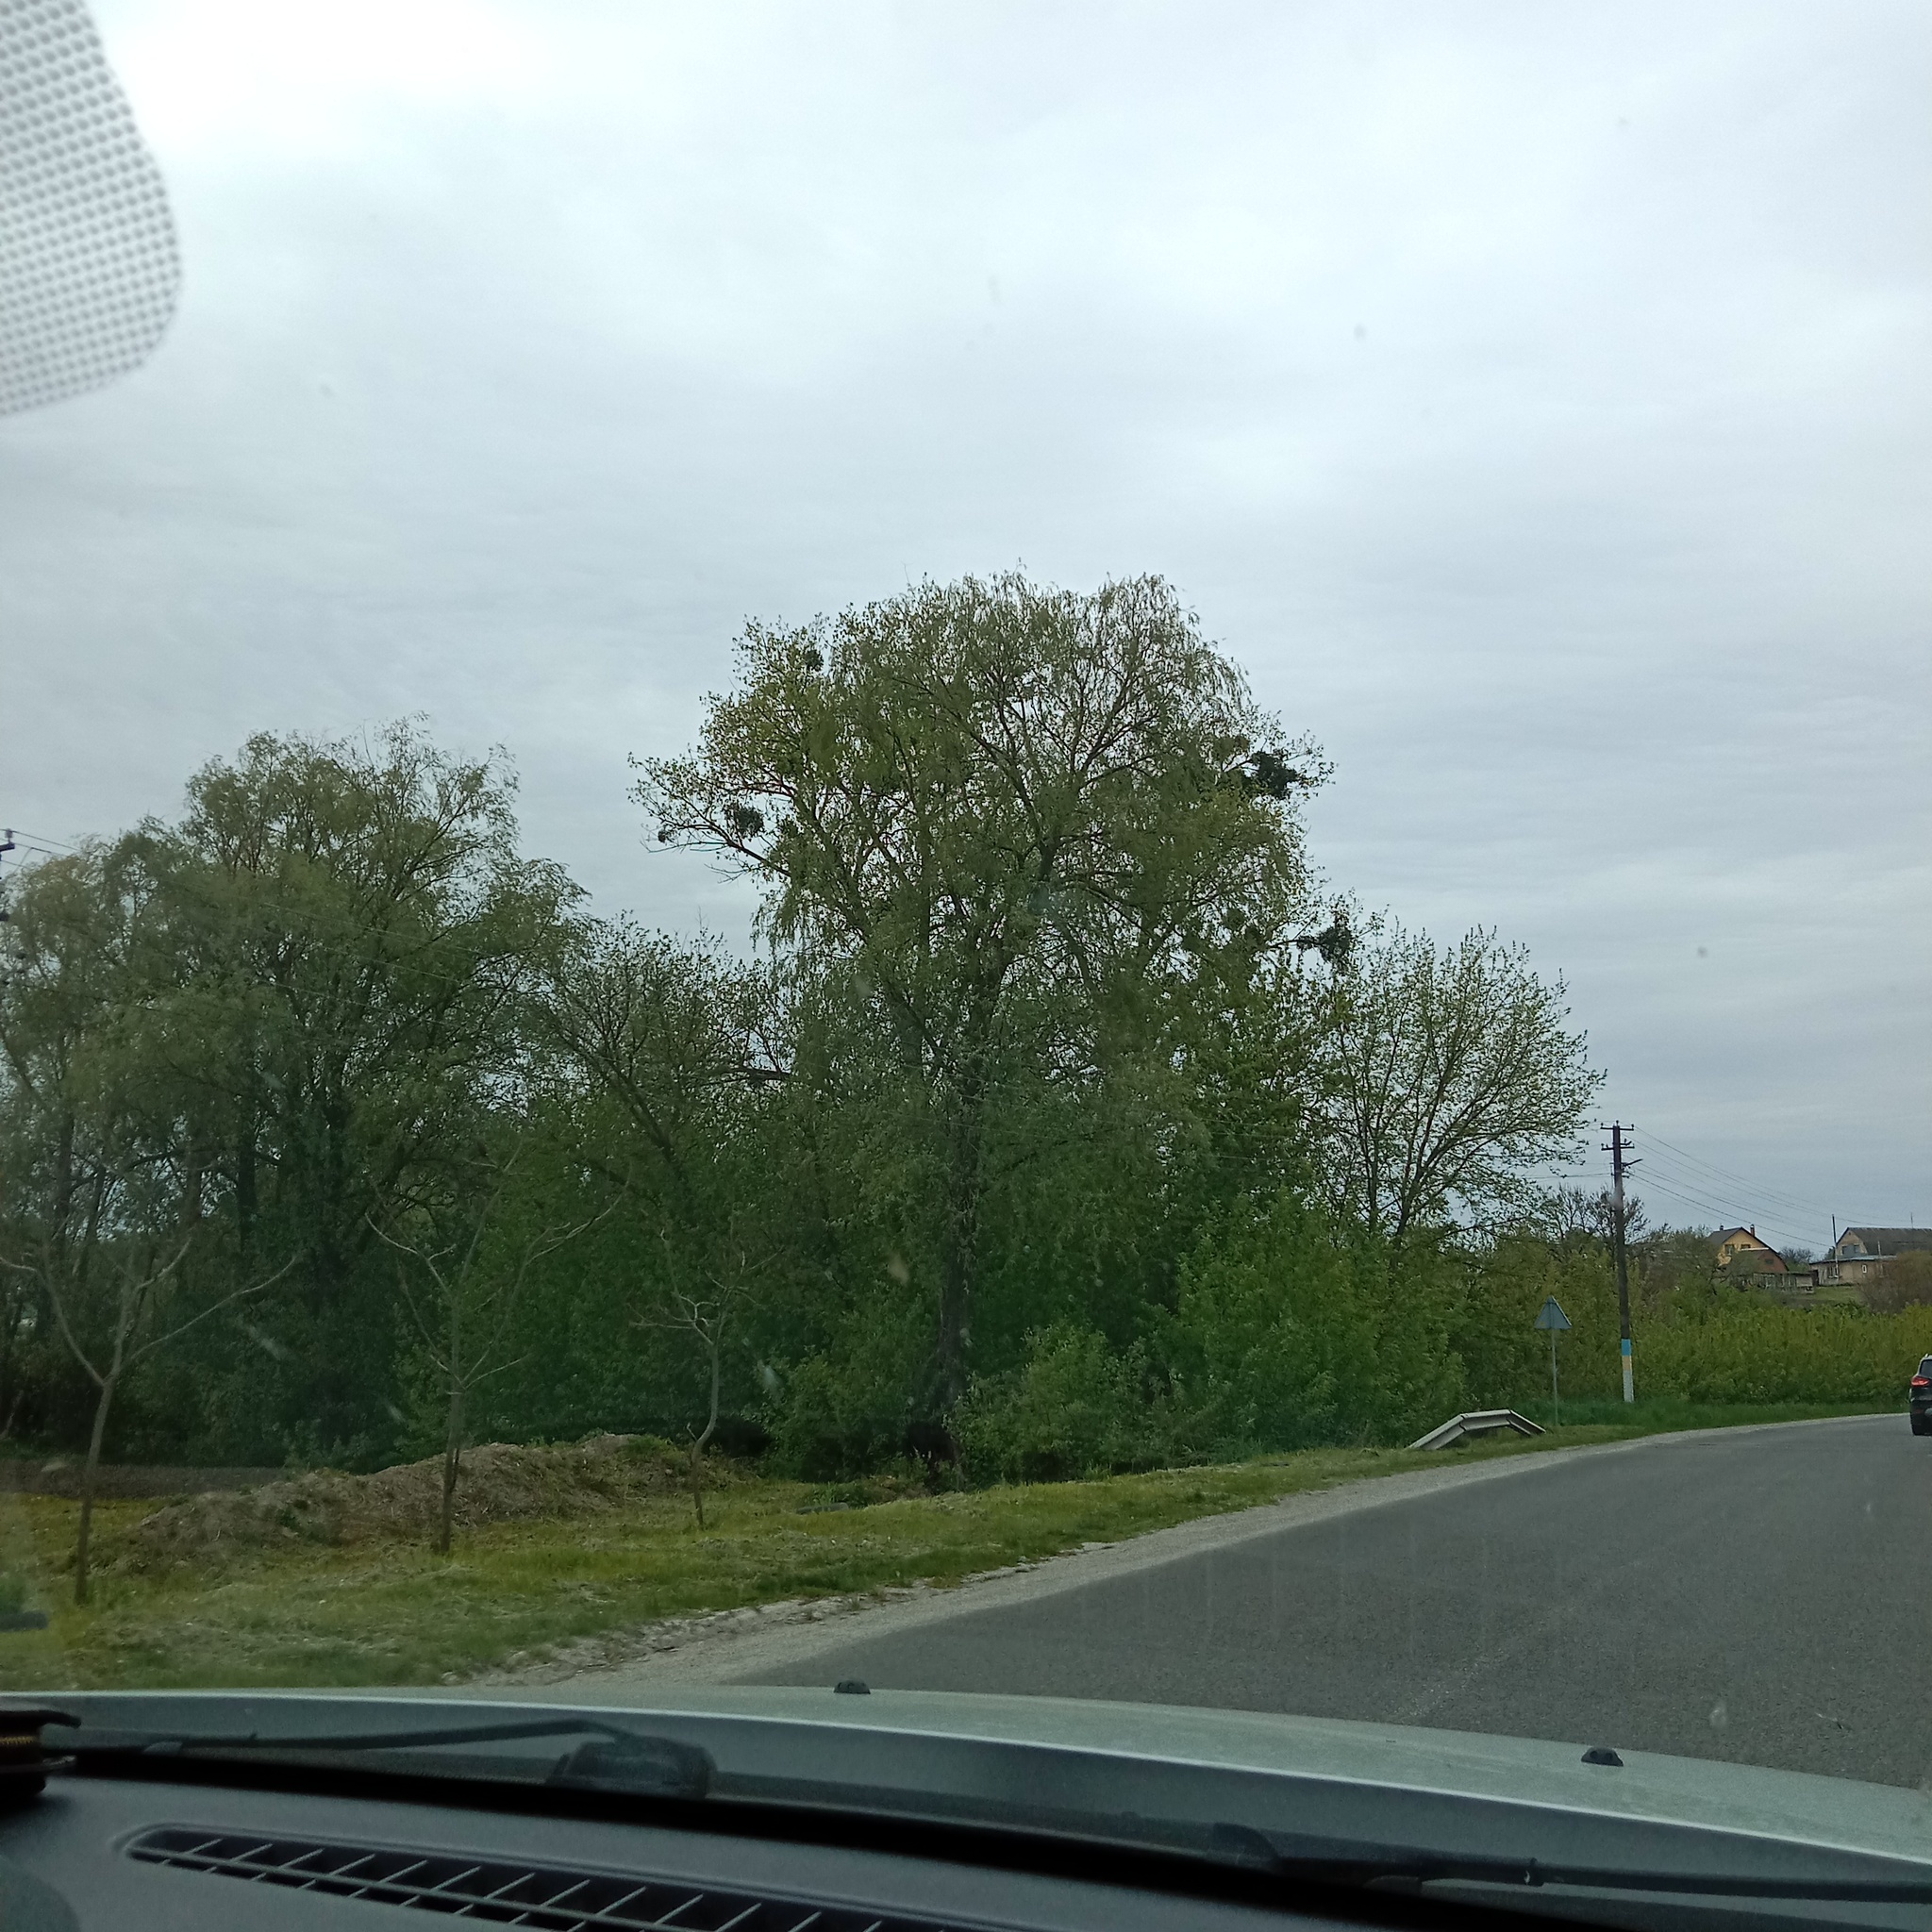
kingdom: Plantae
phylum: Tracheophyta
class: Magnoliopsida
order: Santalales
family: Viscaceae
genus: Viscum
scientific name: Viscum album
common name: Mistletoe
